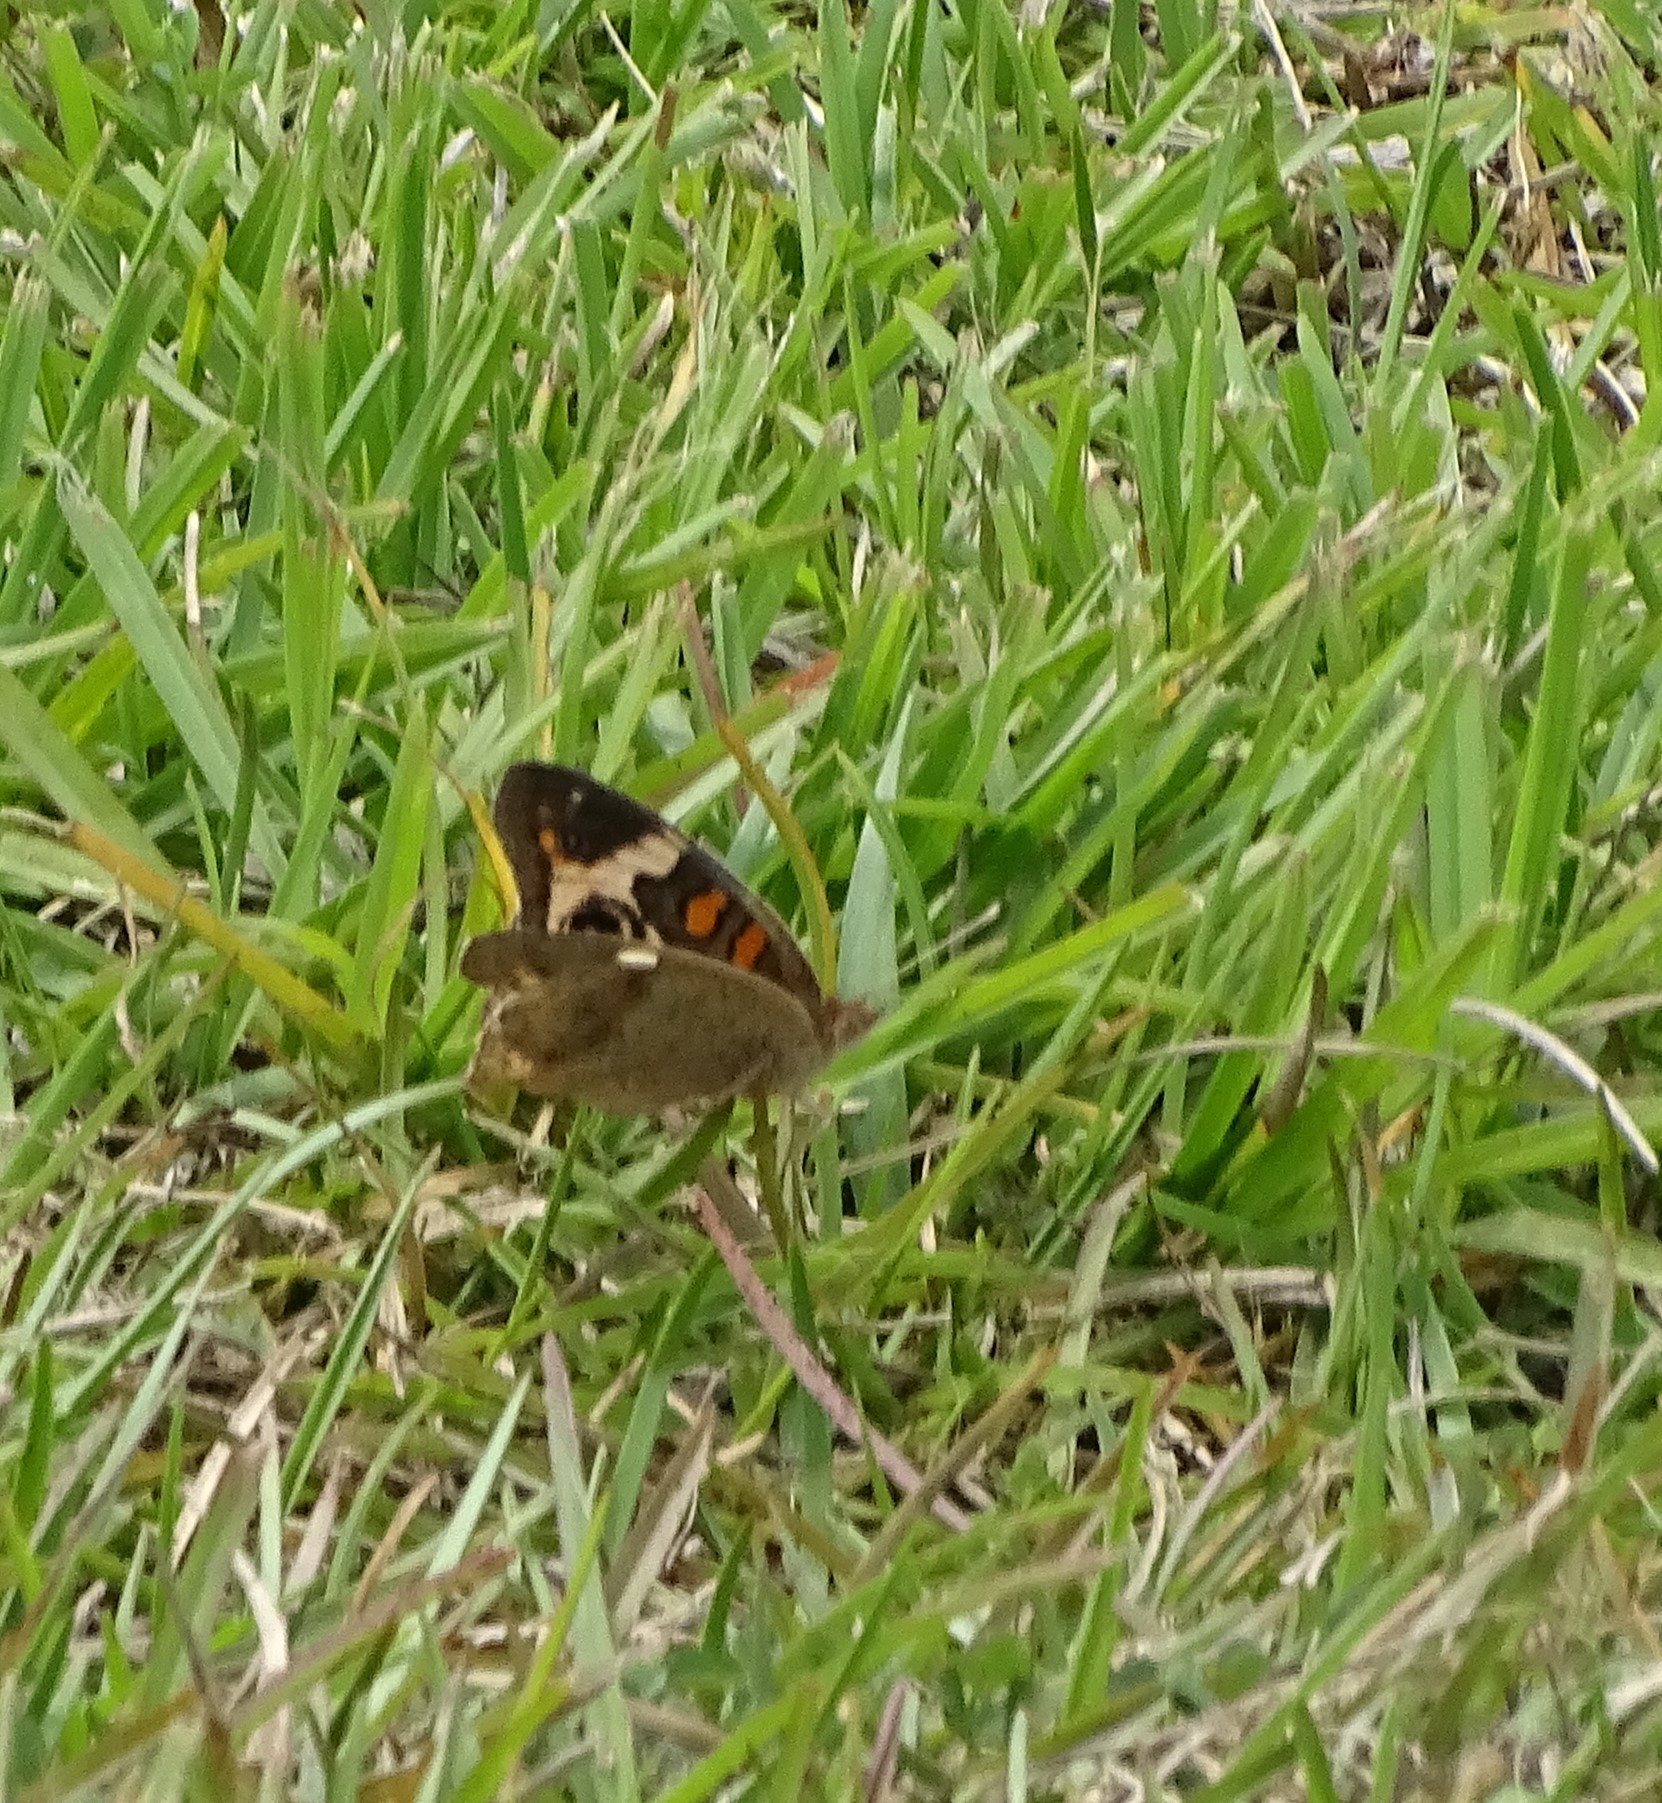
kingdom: Animalia
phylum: Arthropoda
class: Insecta
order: Lepidoptera
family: Nymphalidae
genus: Junonia
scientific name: Junonia coenia
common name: Common buckeye
